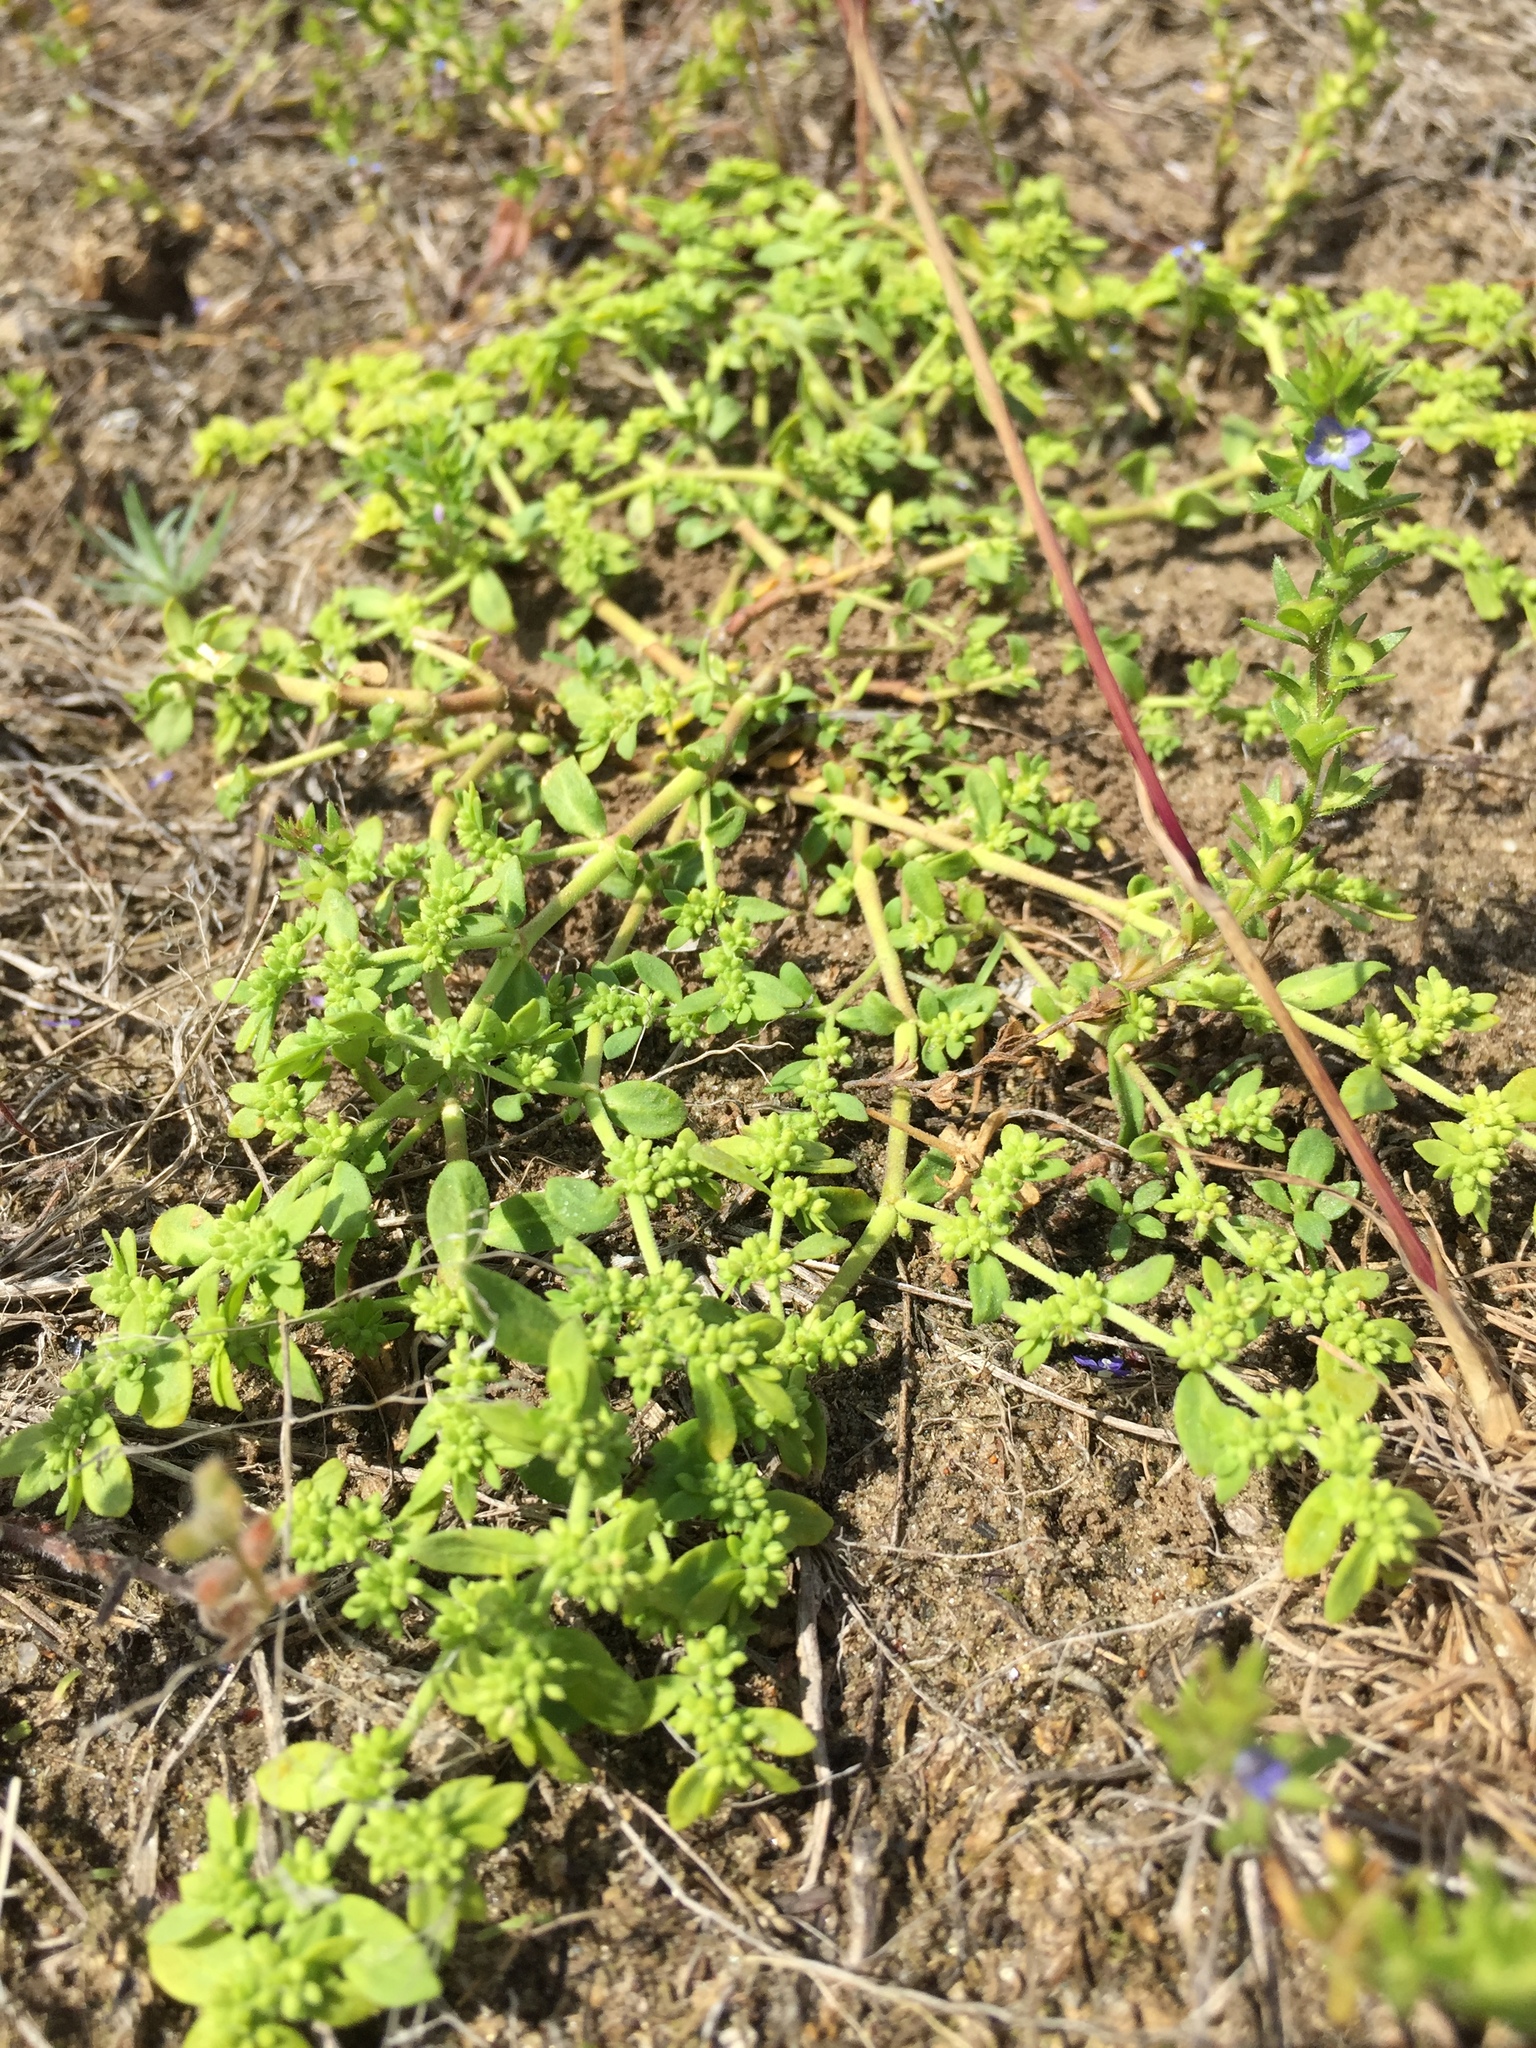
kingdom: Plantae
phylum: Tracheophyta
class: Magnoliopsida
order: Caryophyllales
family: Caryophyllaceae
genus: Herniaria
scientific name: Herniaria polygama
